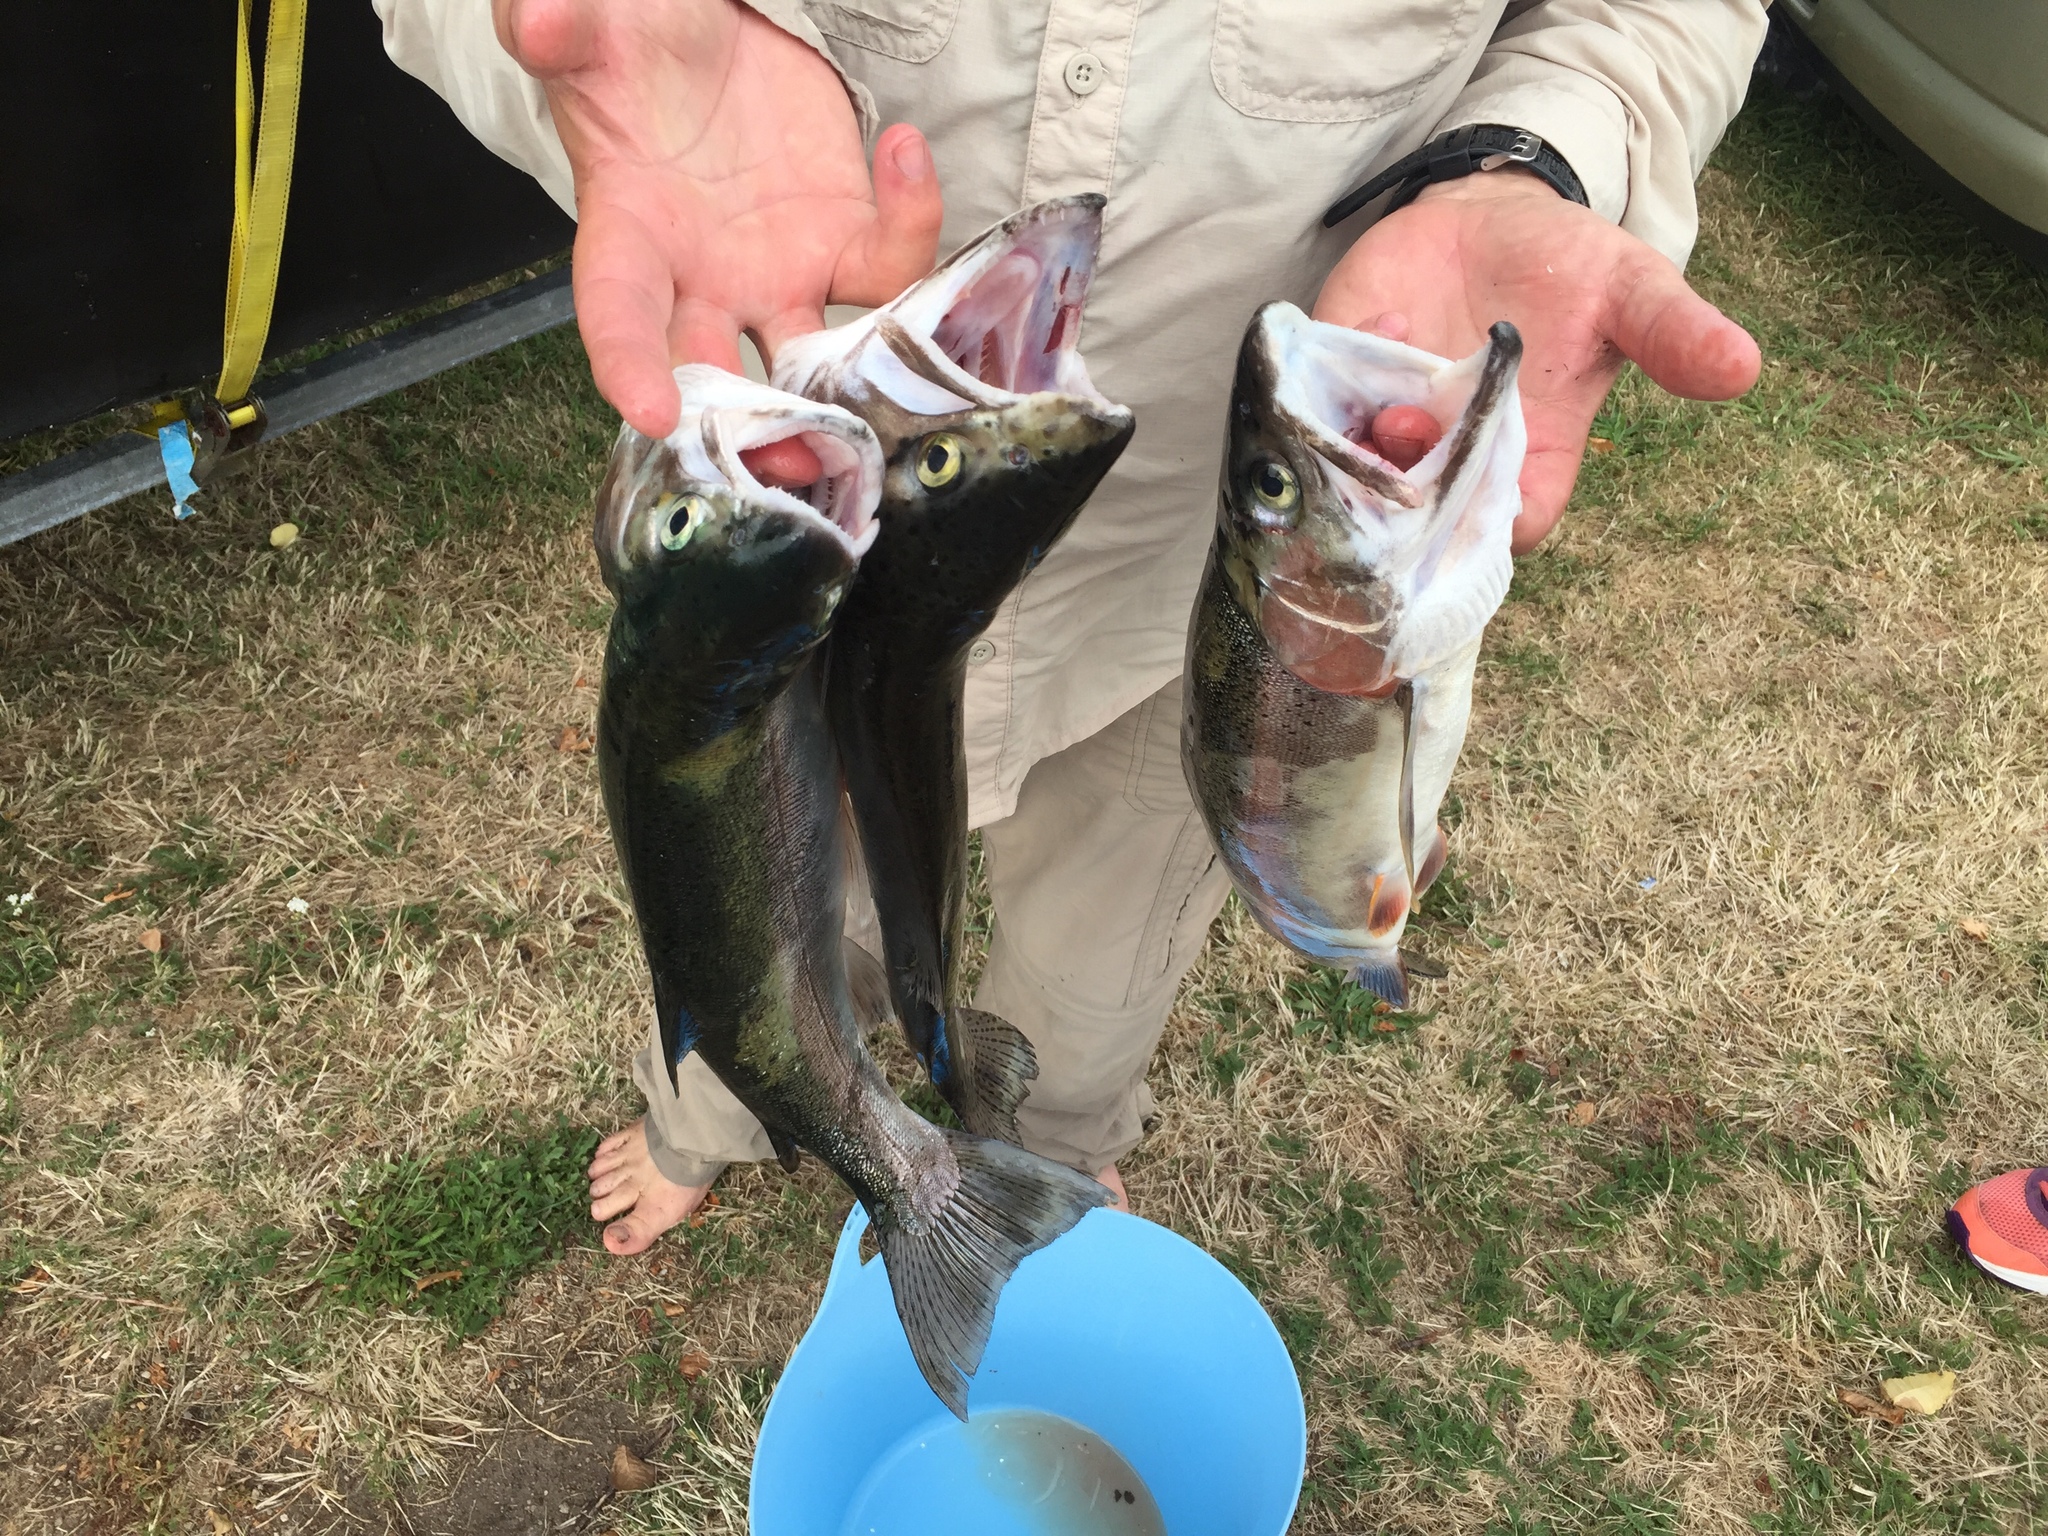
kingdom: Animalia
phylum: Chordata
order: Salmoniformes
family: Salmonidae
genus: Oncorhynchus
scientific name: Oncorhynchus mykiss
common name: Rainbow trout
